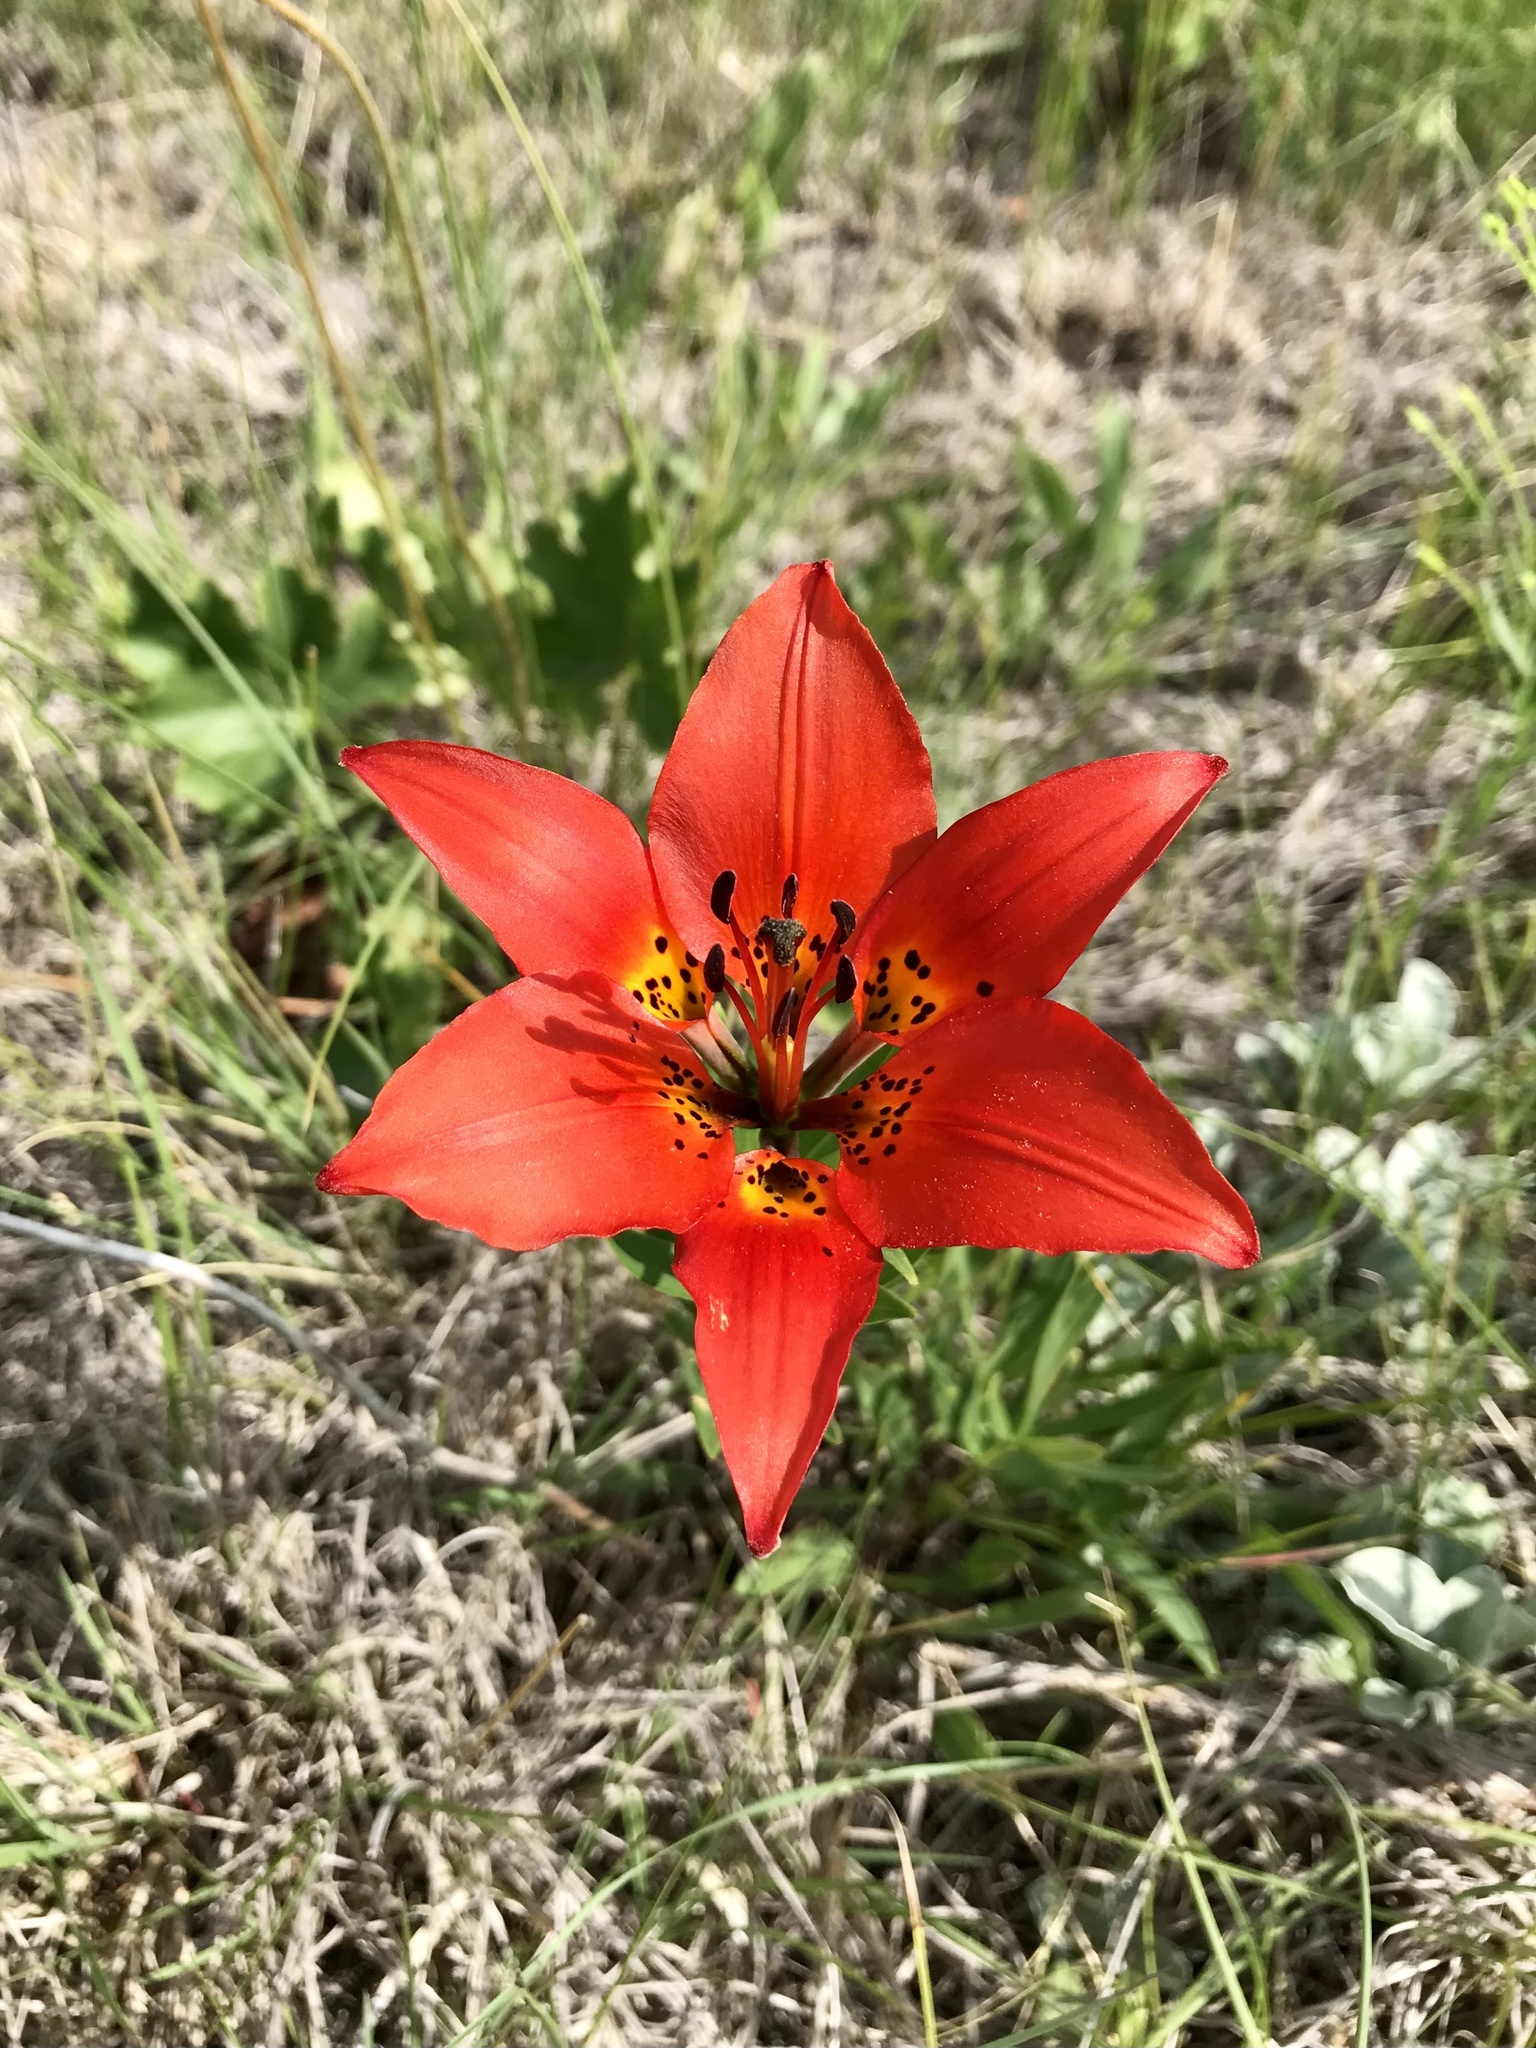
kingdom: Plantae
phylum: Tracheophyta
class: Liliopsida
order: Liliales
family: Liliaceae
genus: Lilium
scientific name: Lilium philadelphicum
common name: Red lily
